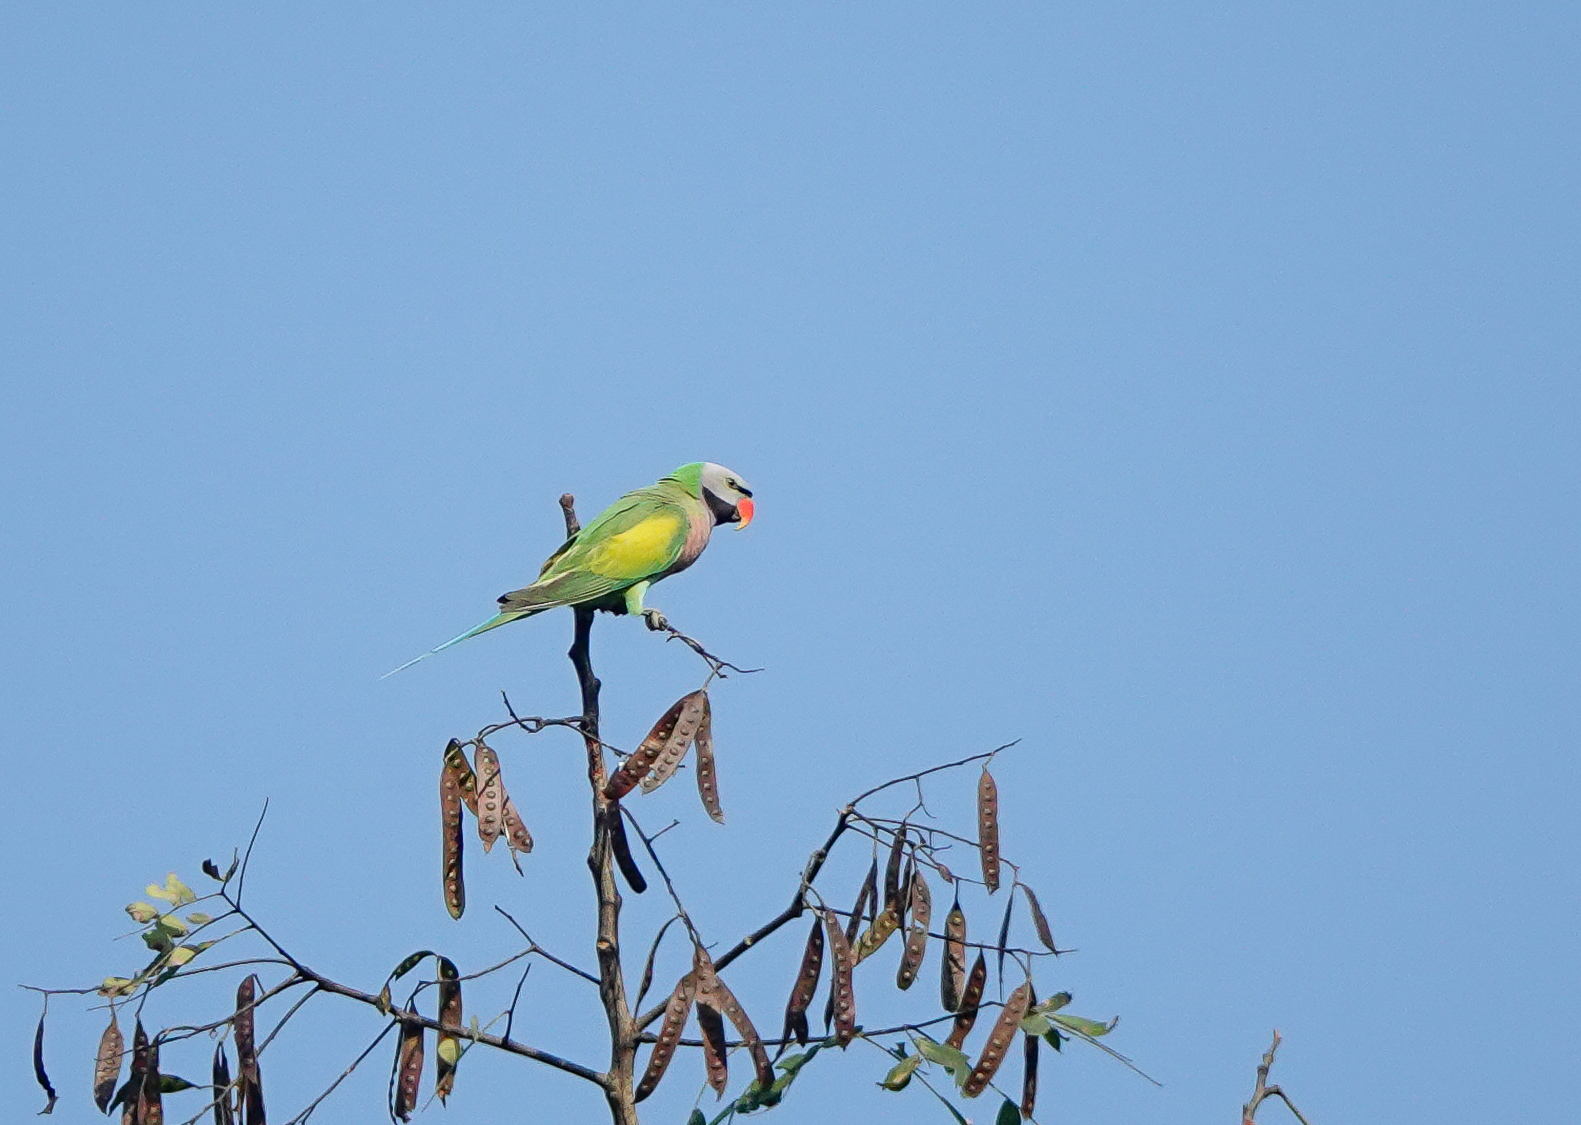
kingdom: Animalia
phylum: Chordata
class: Aves
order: Psittaciformes
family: Psittacidae
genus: Psittacula
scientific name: Psittacula alexandri
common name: Red-breasted parakeet
